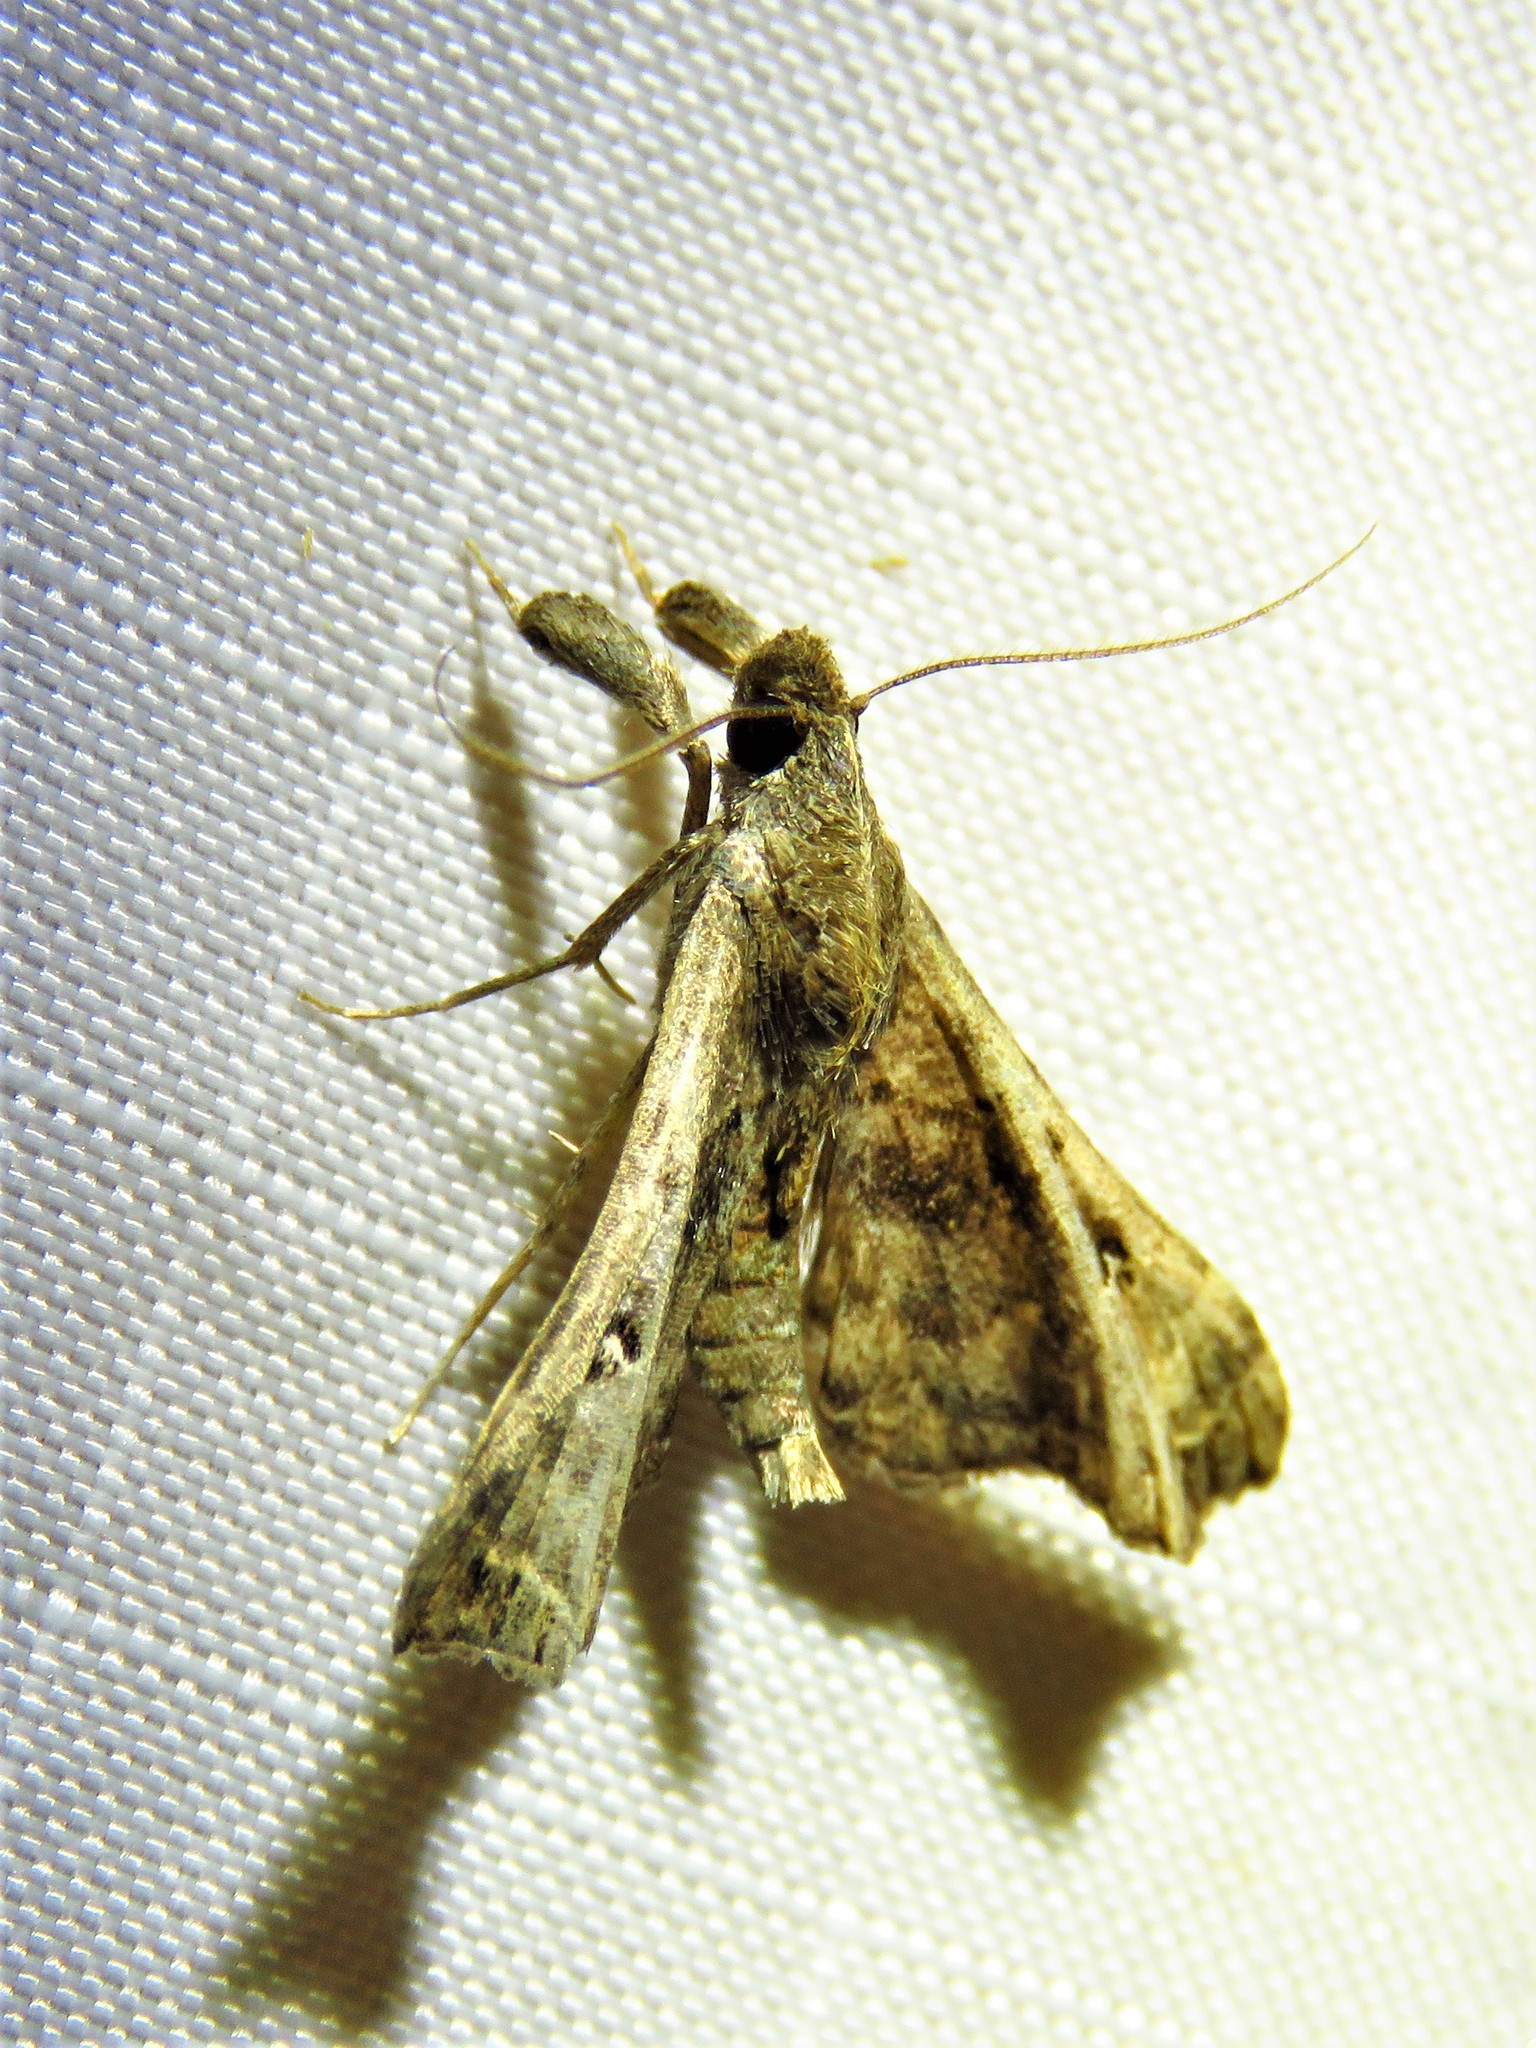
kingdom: Animalia
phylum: Arthropoda
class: Insecta
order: Lepidoptera
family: Erebidae
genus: Palthis
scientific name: Palthis asopialis
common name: Faint-spotted palthis moth
